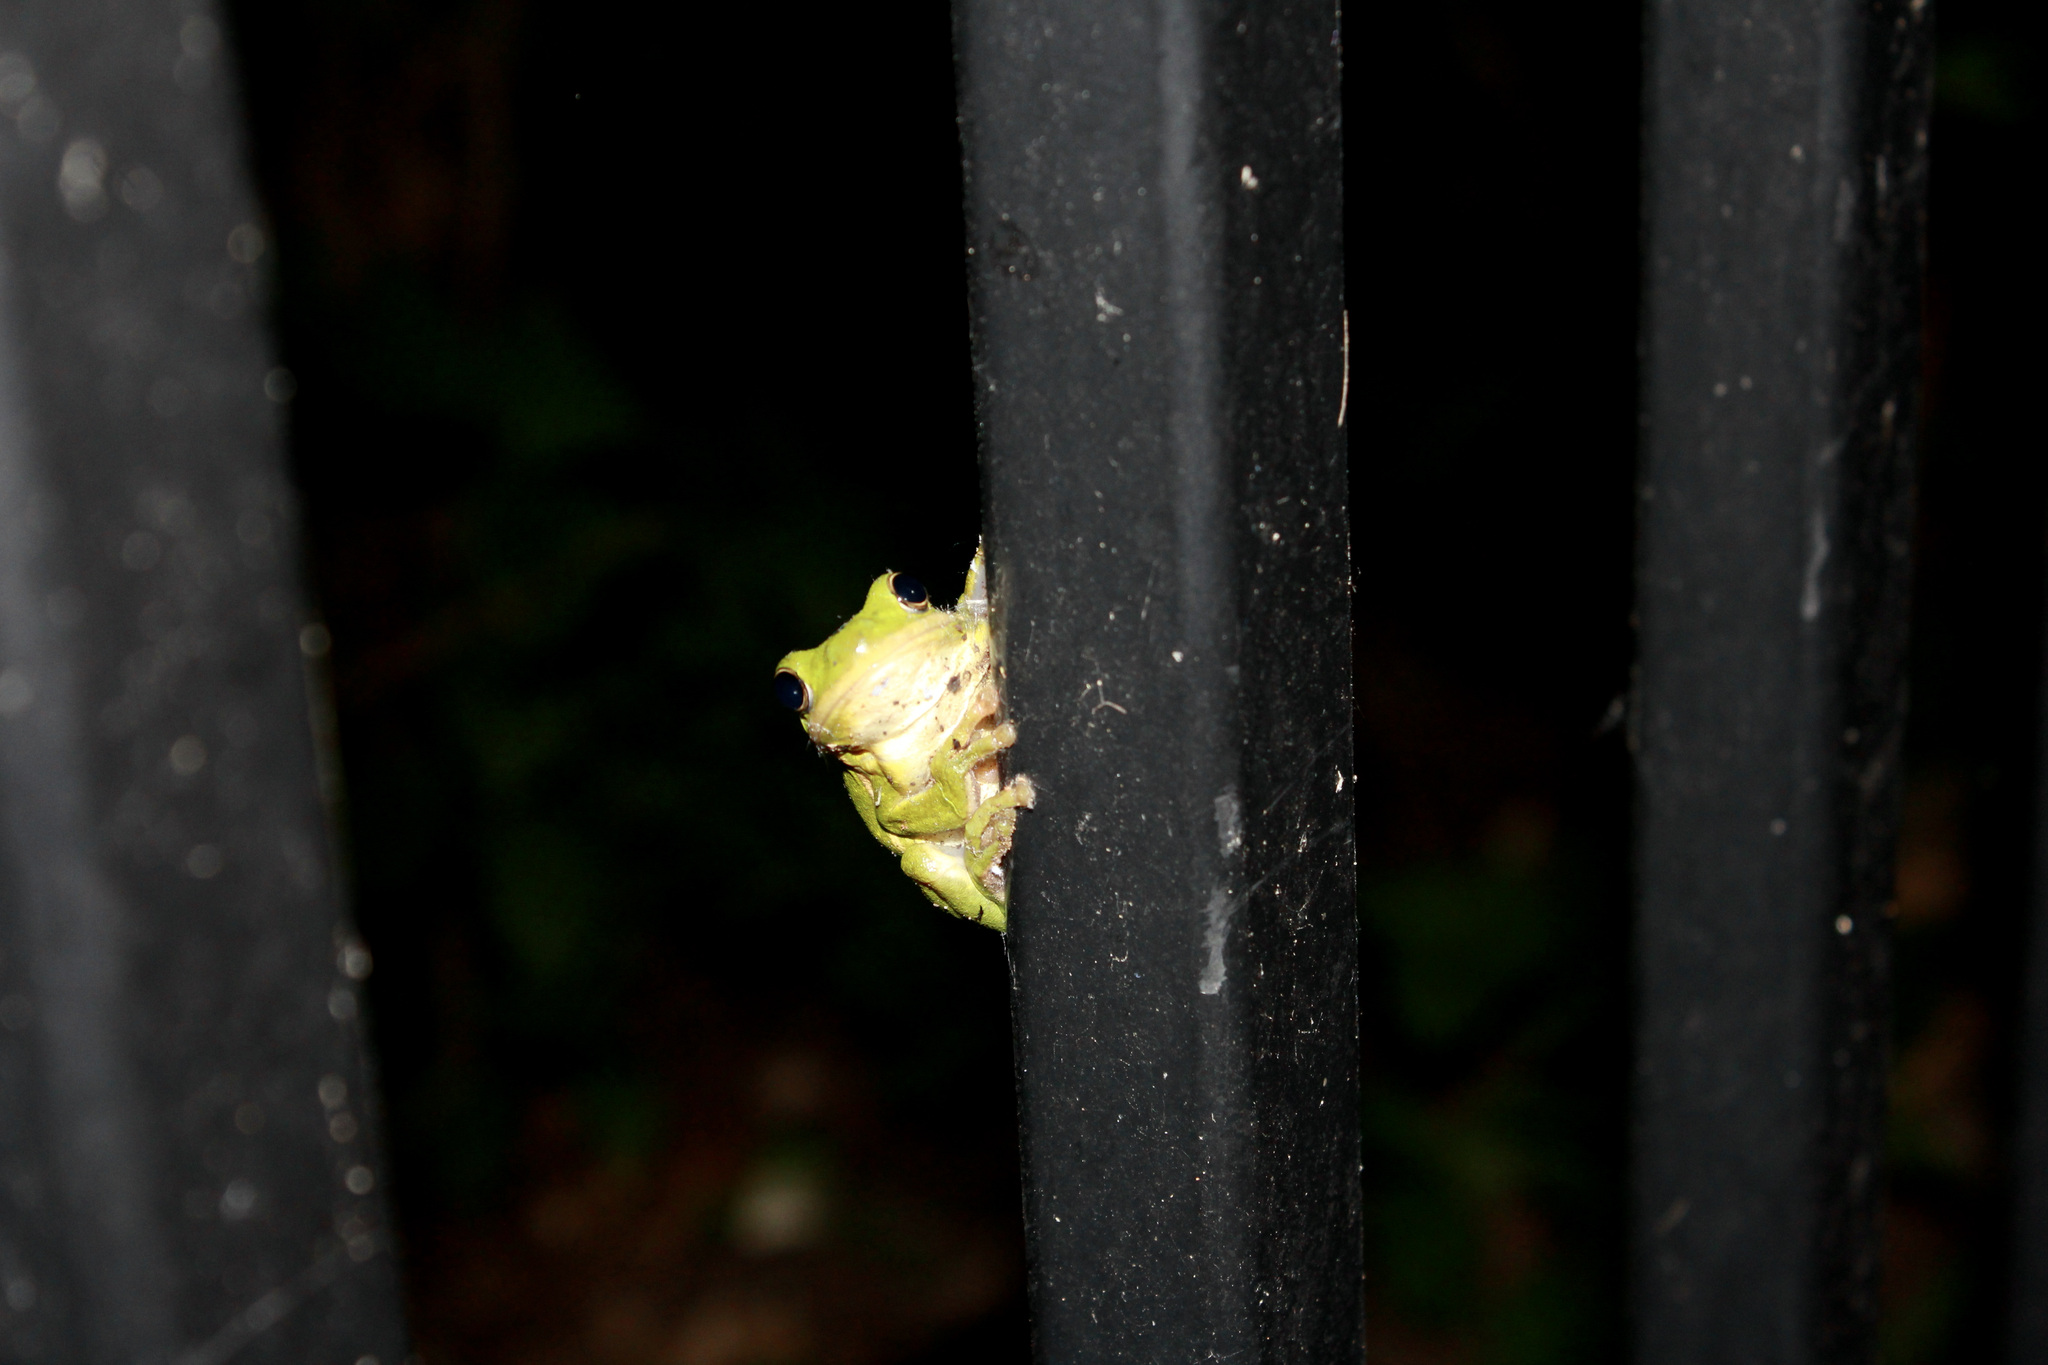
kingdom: Animalia
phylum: Chordata
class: Amphibia
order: Anura
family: Hylidae
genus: Dryophytes
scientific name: Dryophytes cinereus
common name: Green treefrog
